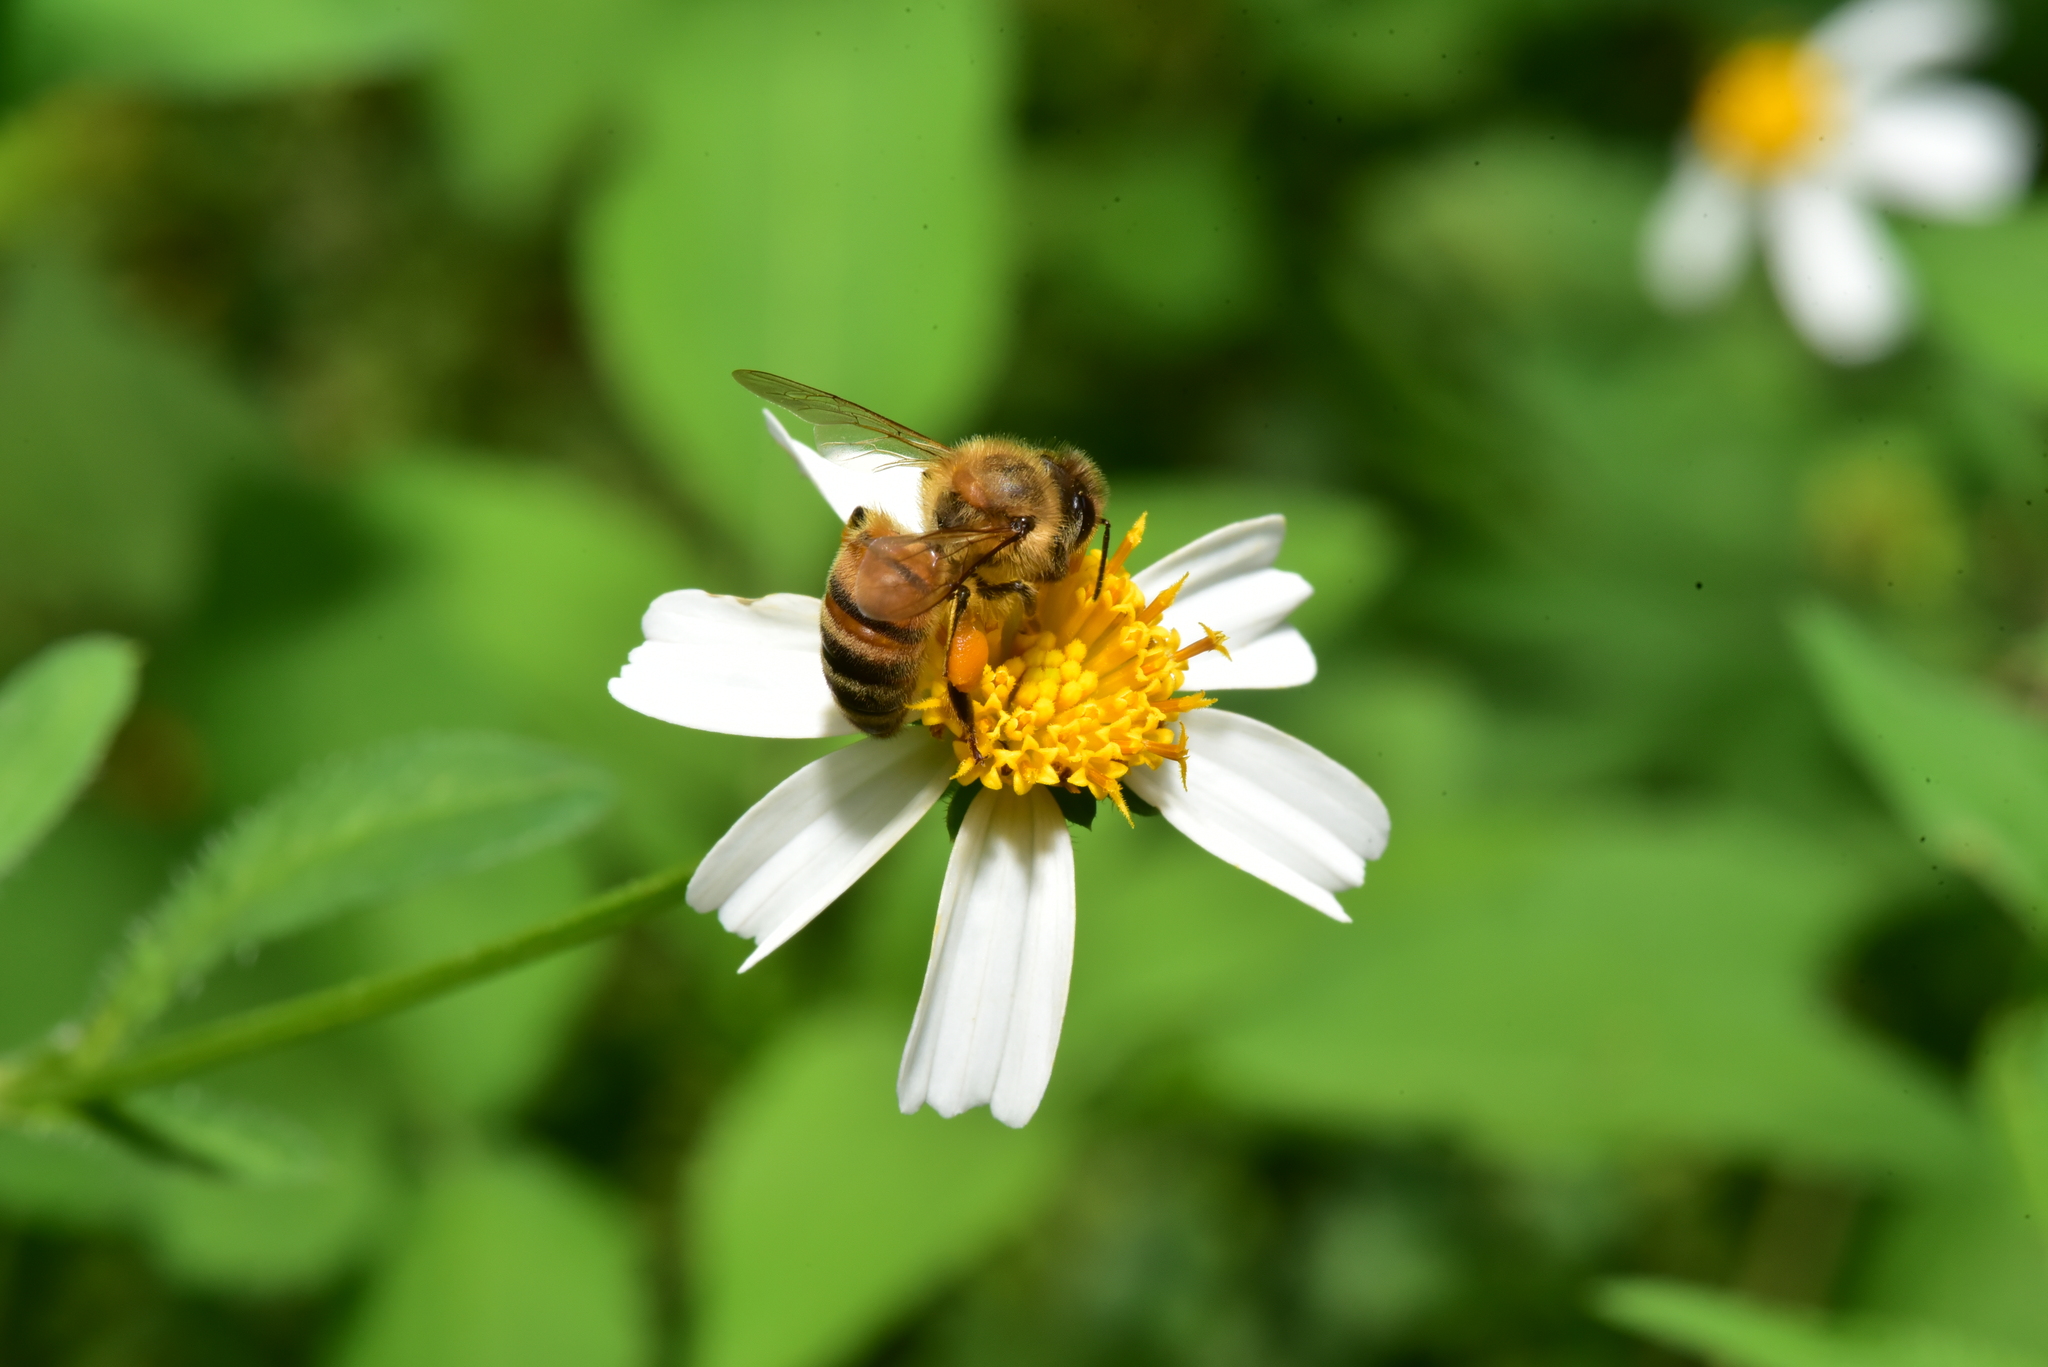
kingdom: Animalia
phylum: Arthropoda
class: Insecta
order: Hymenoptera
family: Apidae
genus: Apis
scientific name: Apis mellifera
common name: Honey bee
